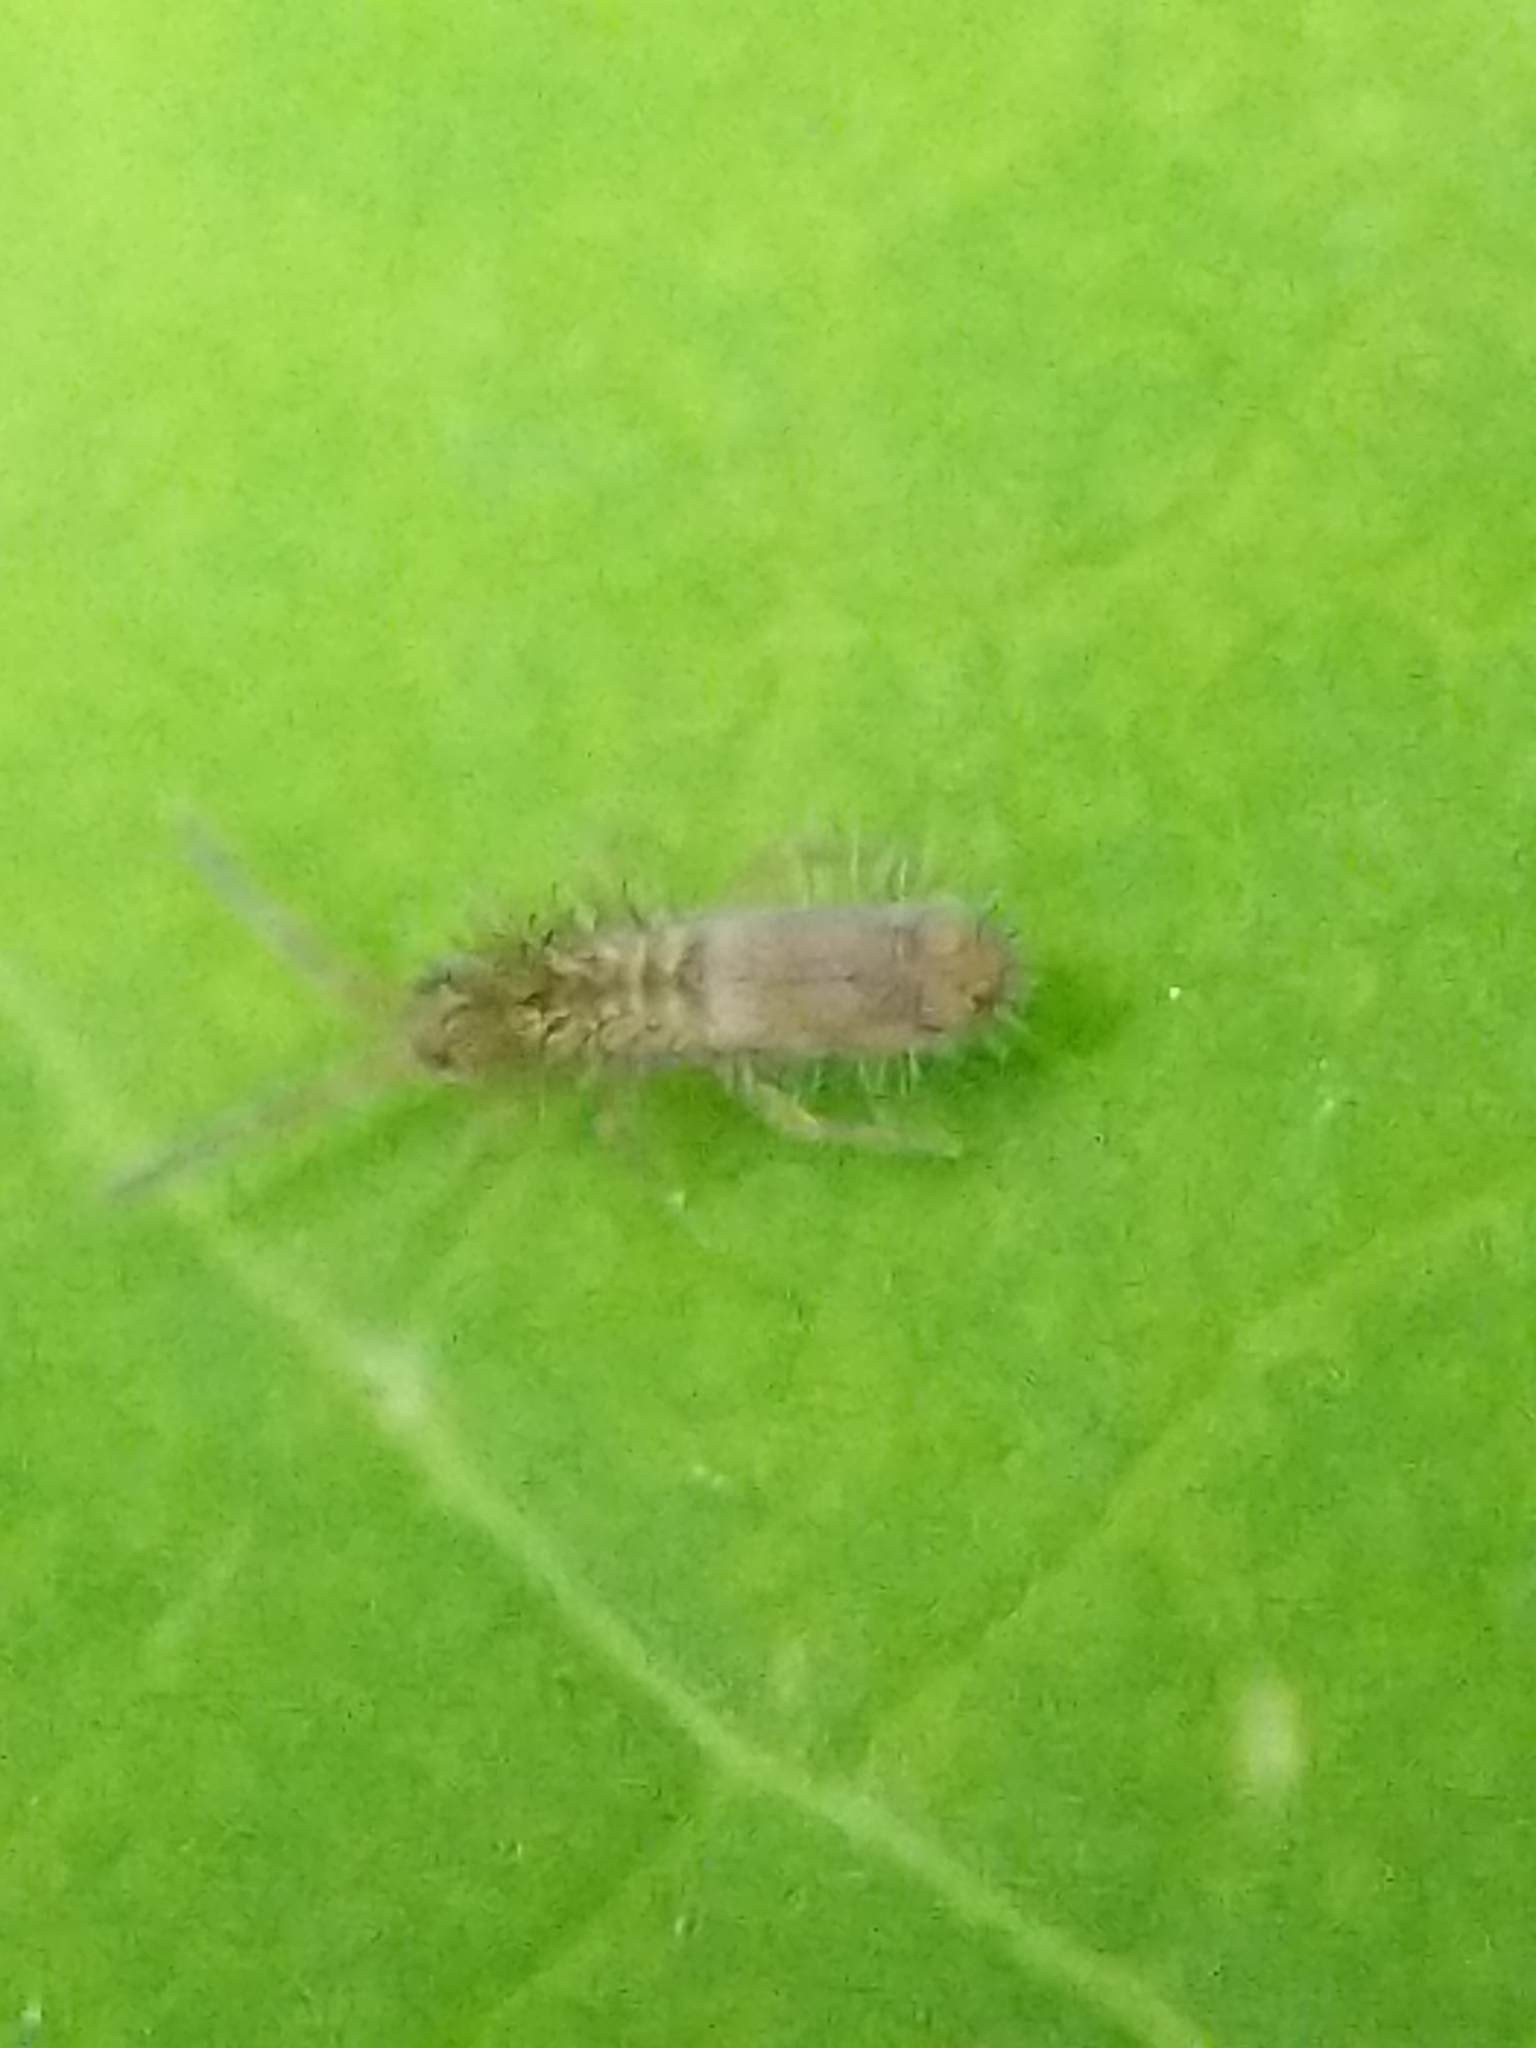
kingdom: Animalia
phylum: Arthropoda
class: Collembola
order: Entomobryomorpha
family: Entomobryidae
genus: Homidia
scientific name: Homidia socia
